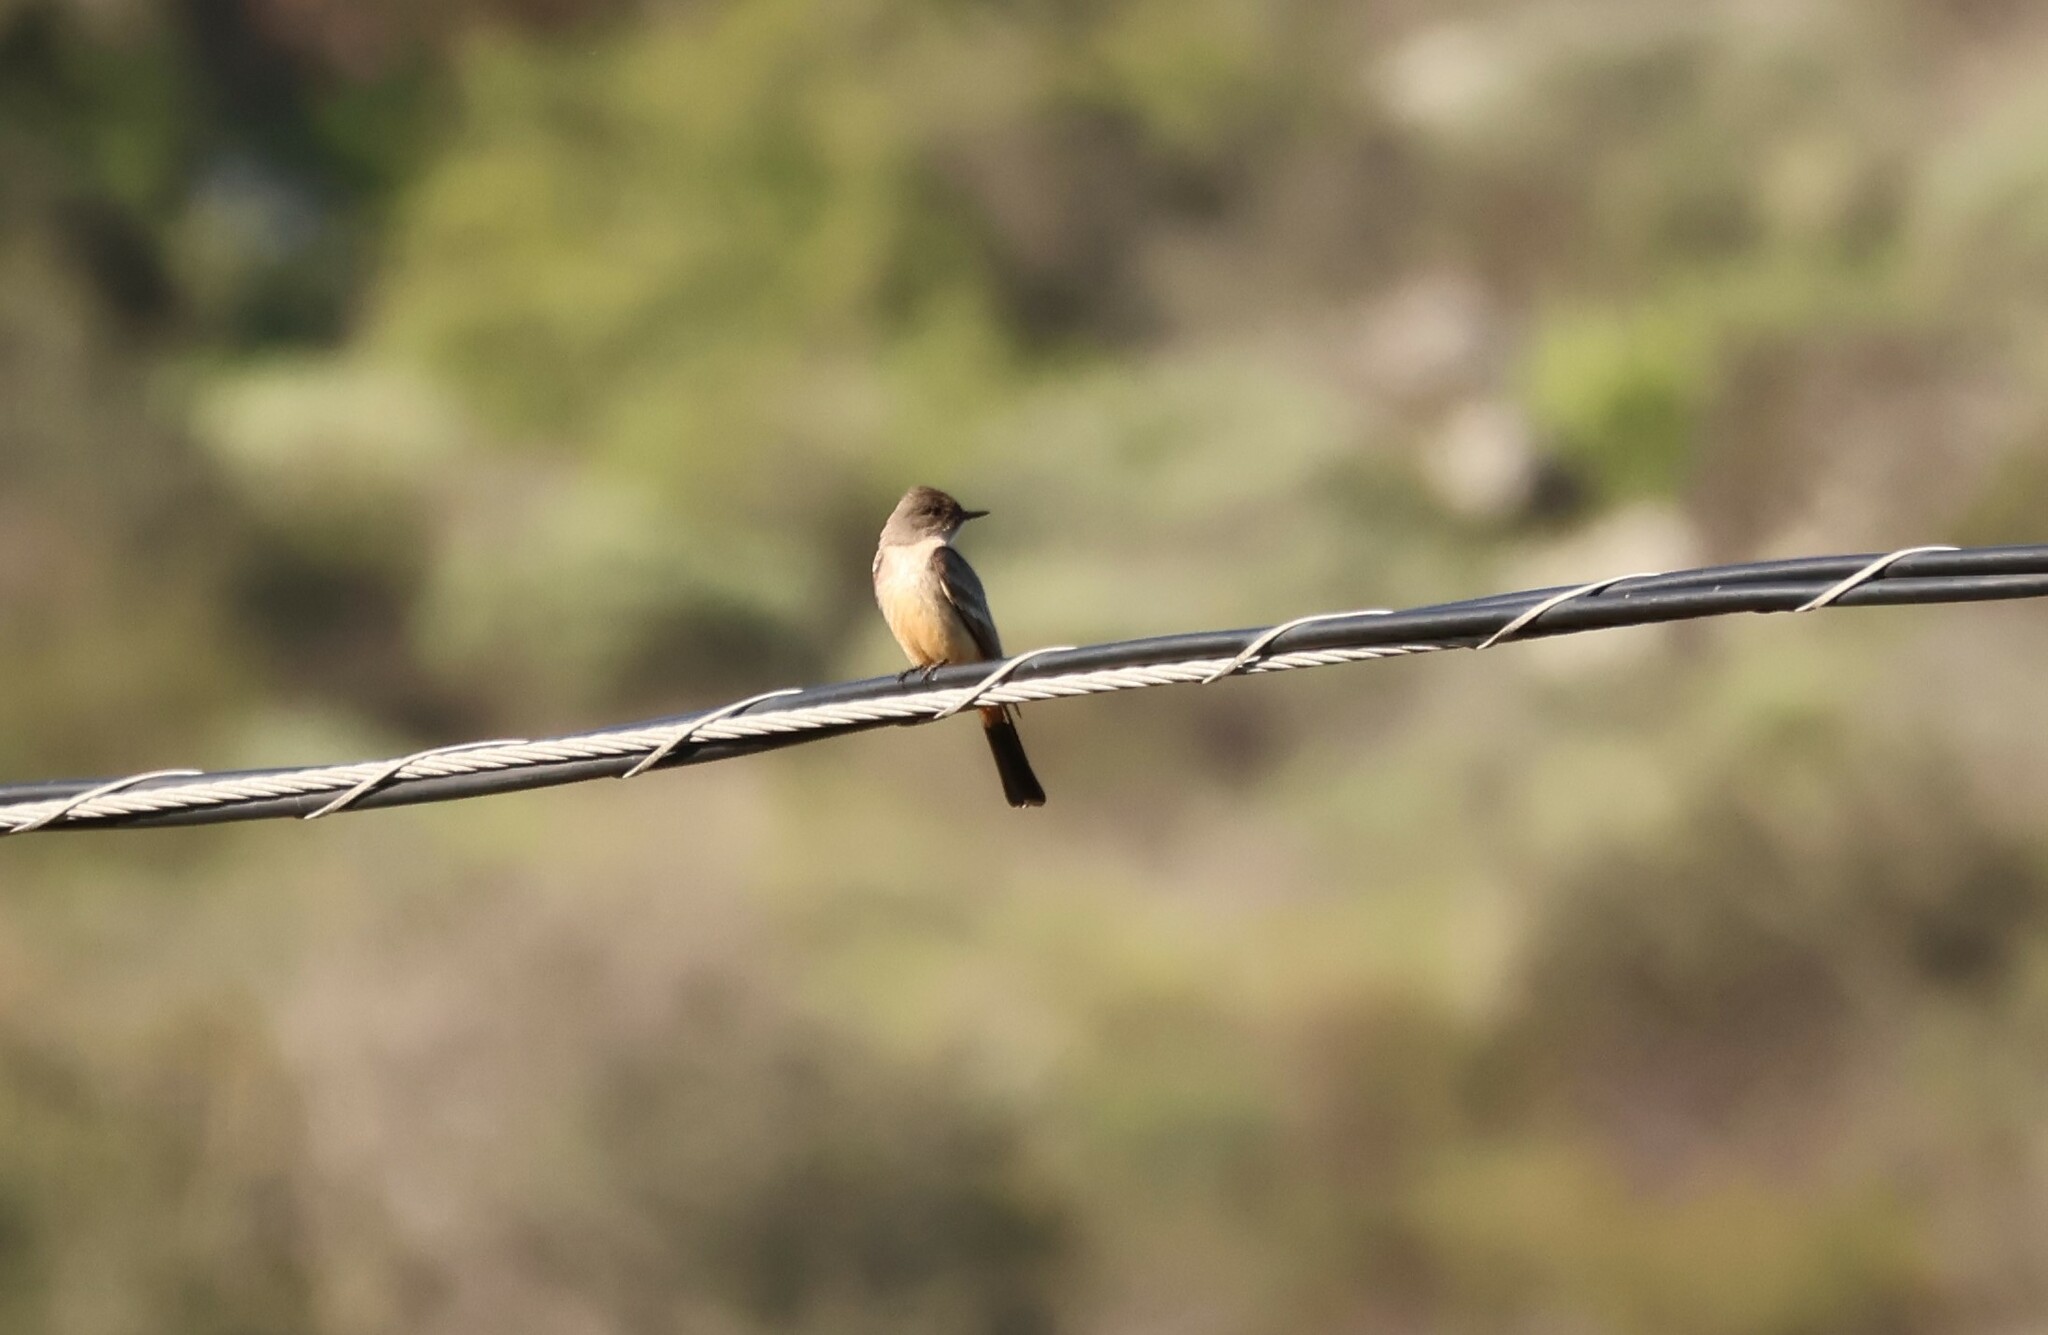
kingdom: Animalia
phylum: Chordata
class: Aves
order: Passeriformes
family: Tyrannidae
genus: Sayornis
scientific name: Sayornis saya
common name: Say's phoebe
